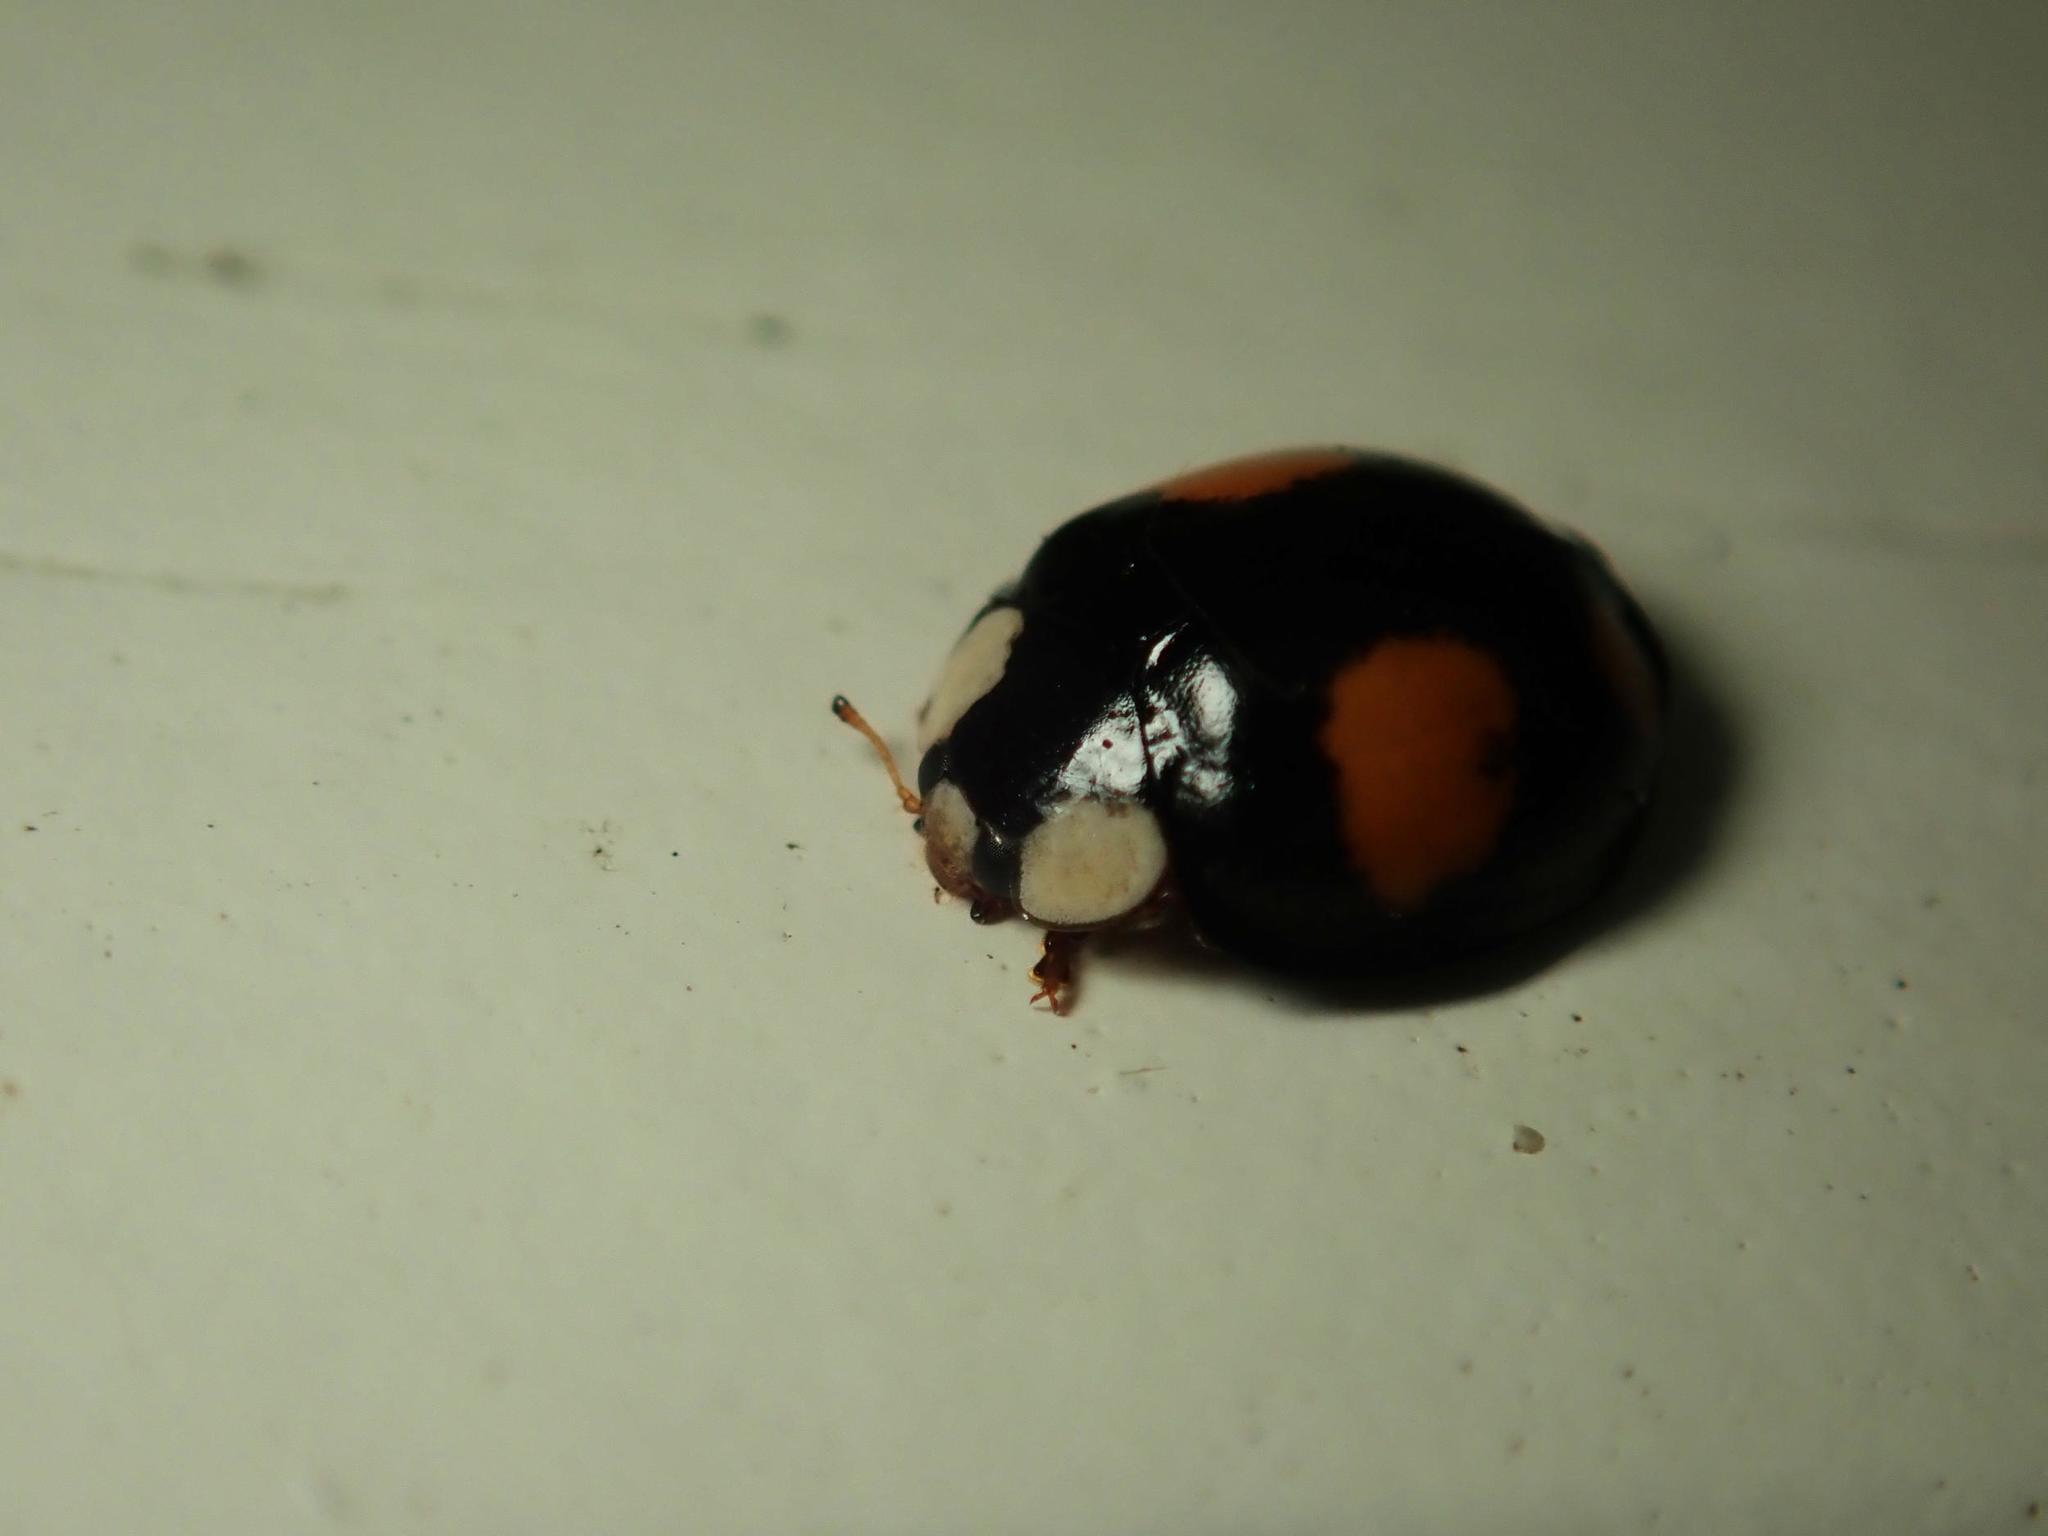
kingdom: Animalia
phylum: Arthropoda
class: Insecta
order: Coleoptera
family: Coccinellidae
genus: Harmonia
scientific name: Harmonia axyridis
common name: Harlequin ladybird
